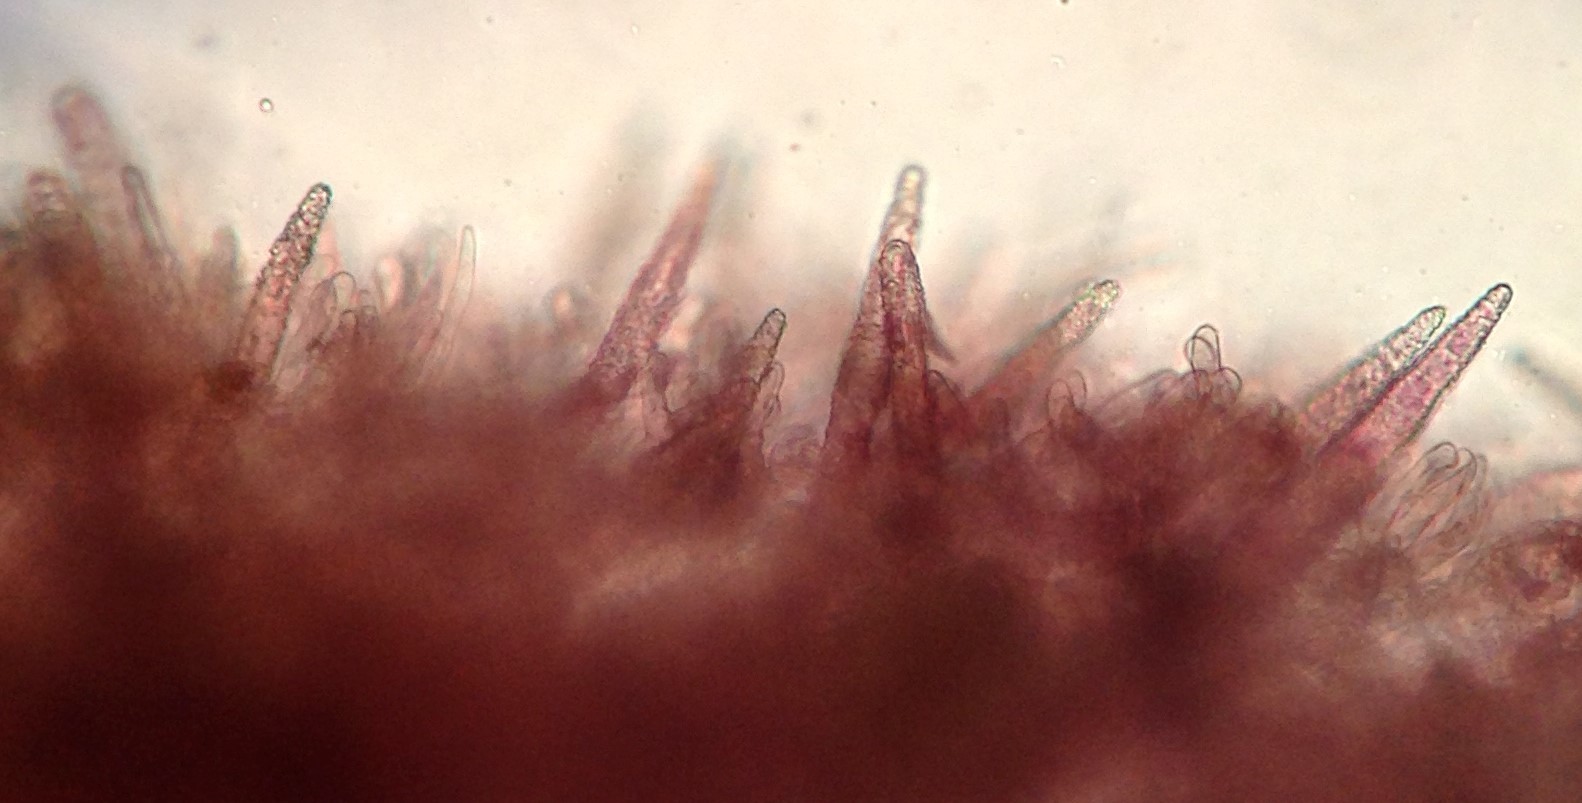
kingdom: Fungi
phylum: Basidiomycota
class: Agaricomycetes
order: Polyporales
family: Phanerochaetaceae
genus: Phlebiopsis
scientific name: Phlebiopsis crassa
